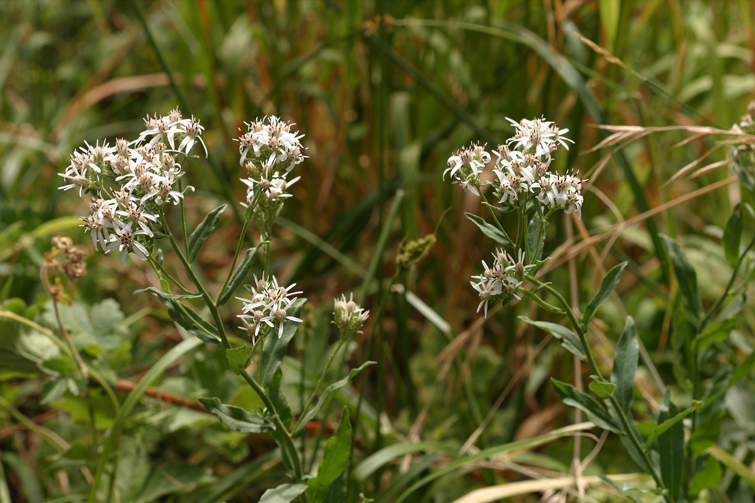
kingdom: Plantae
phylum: Tracheophyta
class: Magnoliopsida
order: Asterales
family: Asteraceae
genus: Sericocarpus
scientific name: Sericocarpus oregonensis
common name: Oregon white-top aster
